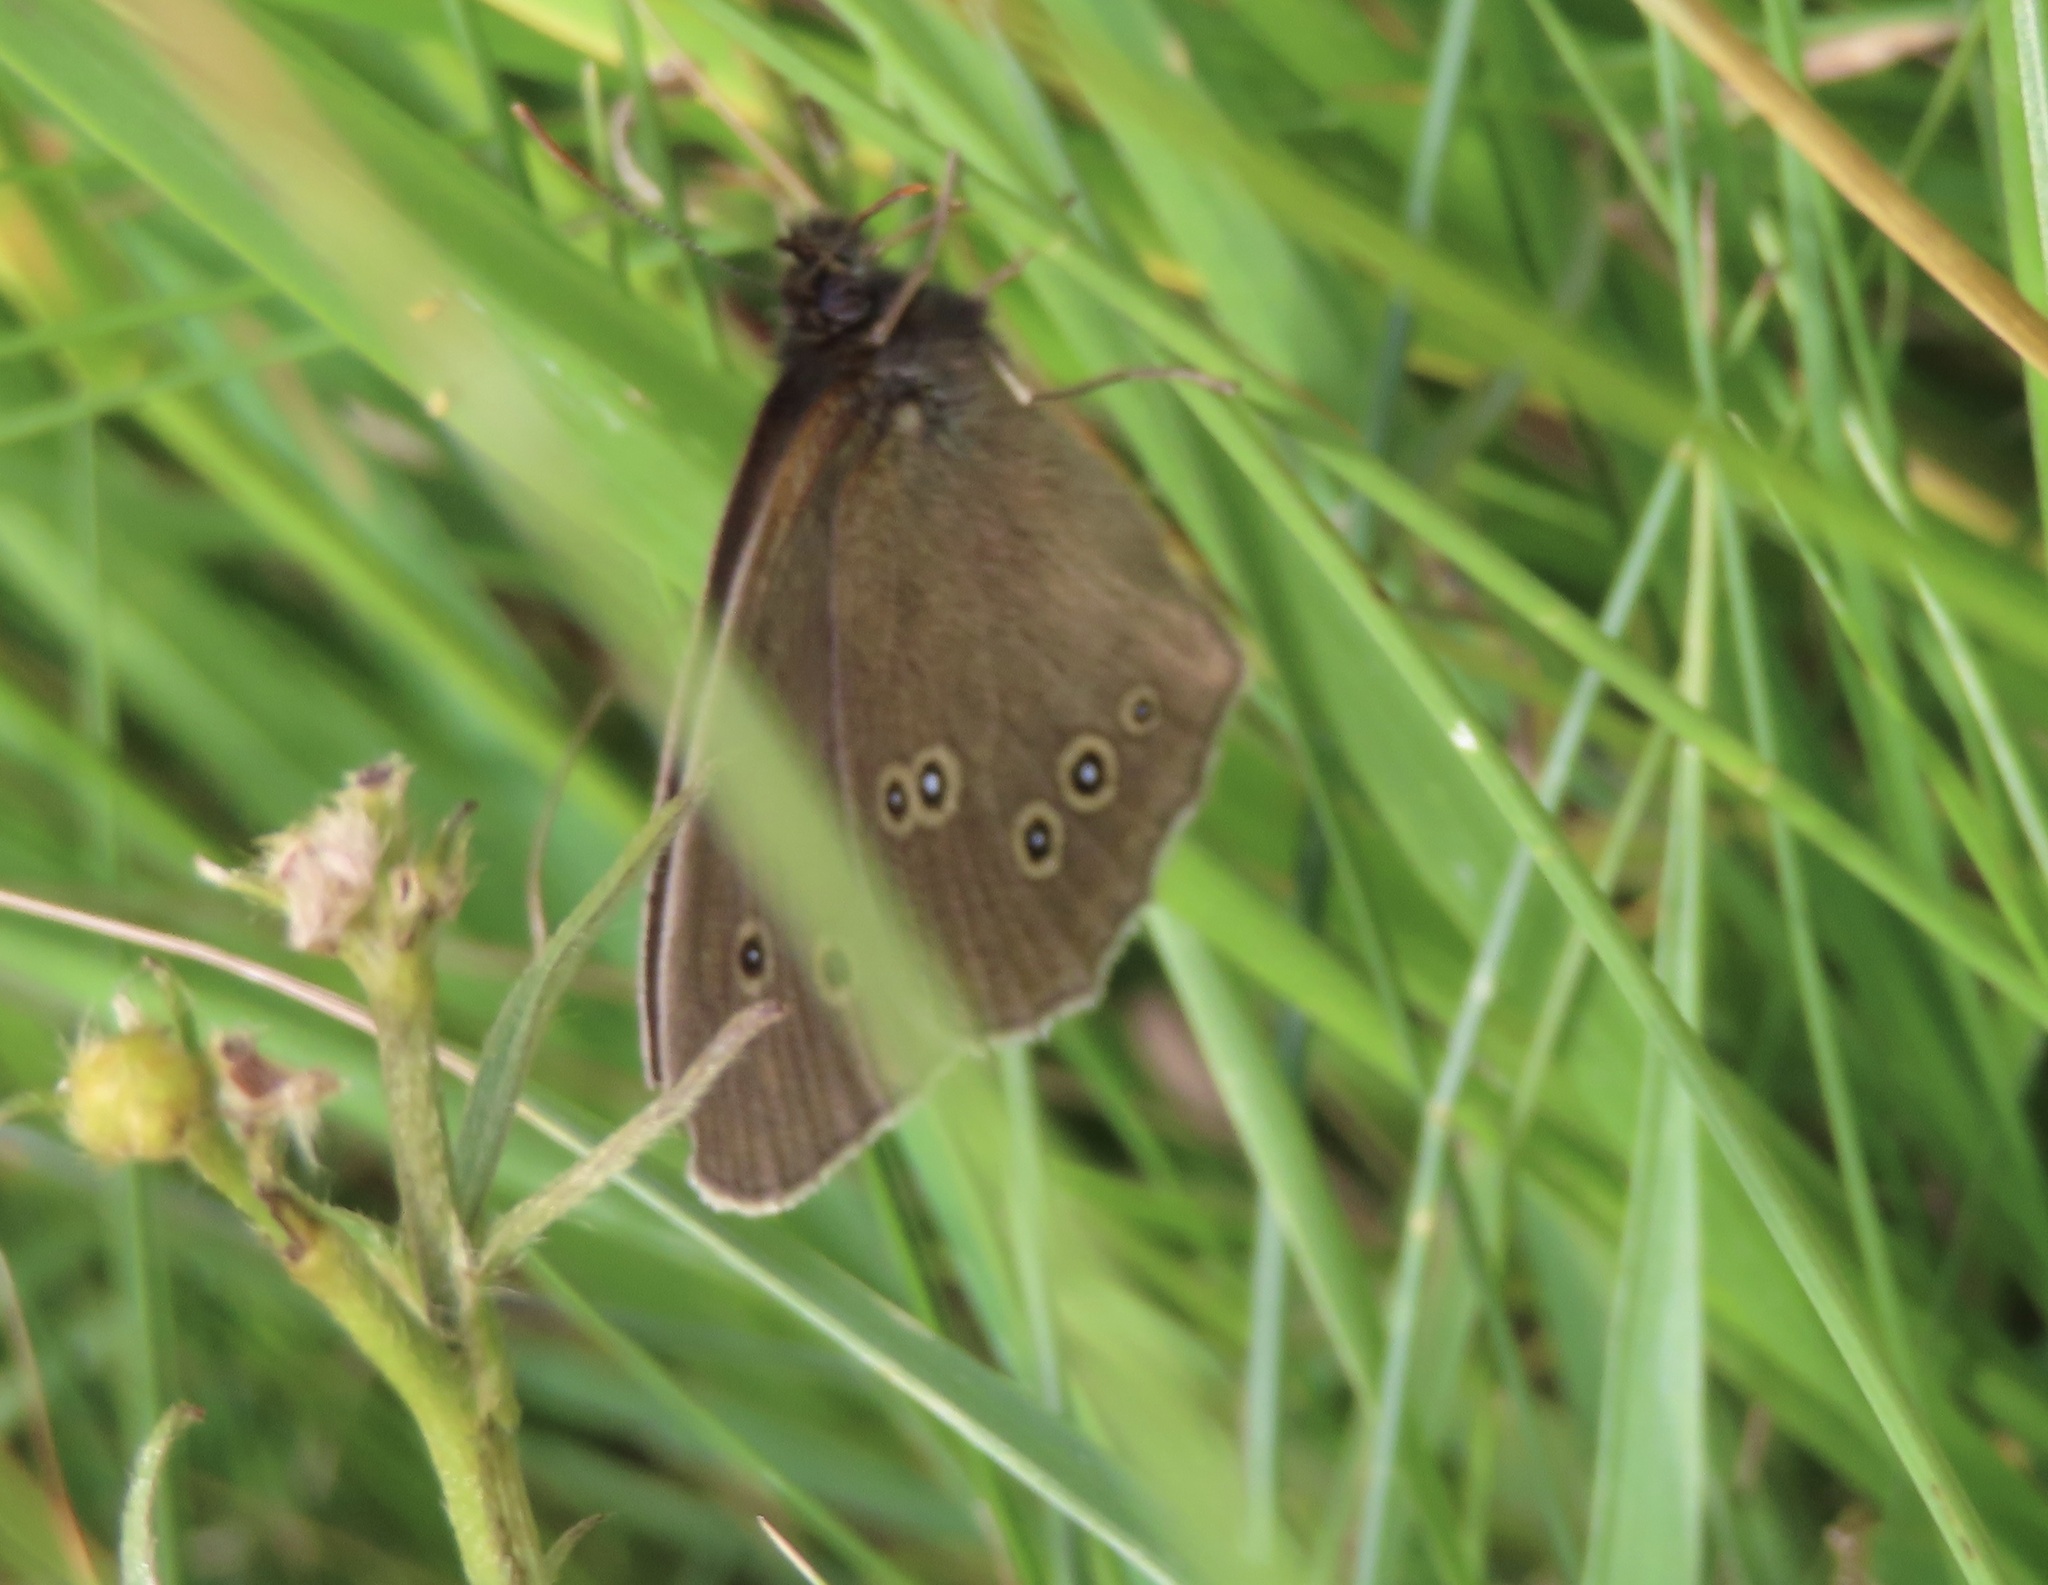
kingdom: Animalia
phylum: Arthropoda
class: Insecta
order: Lepidoptera
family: Nymphalidae
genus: Aphantopus
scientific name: Aphantopus hyperantus
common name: Ringlet
